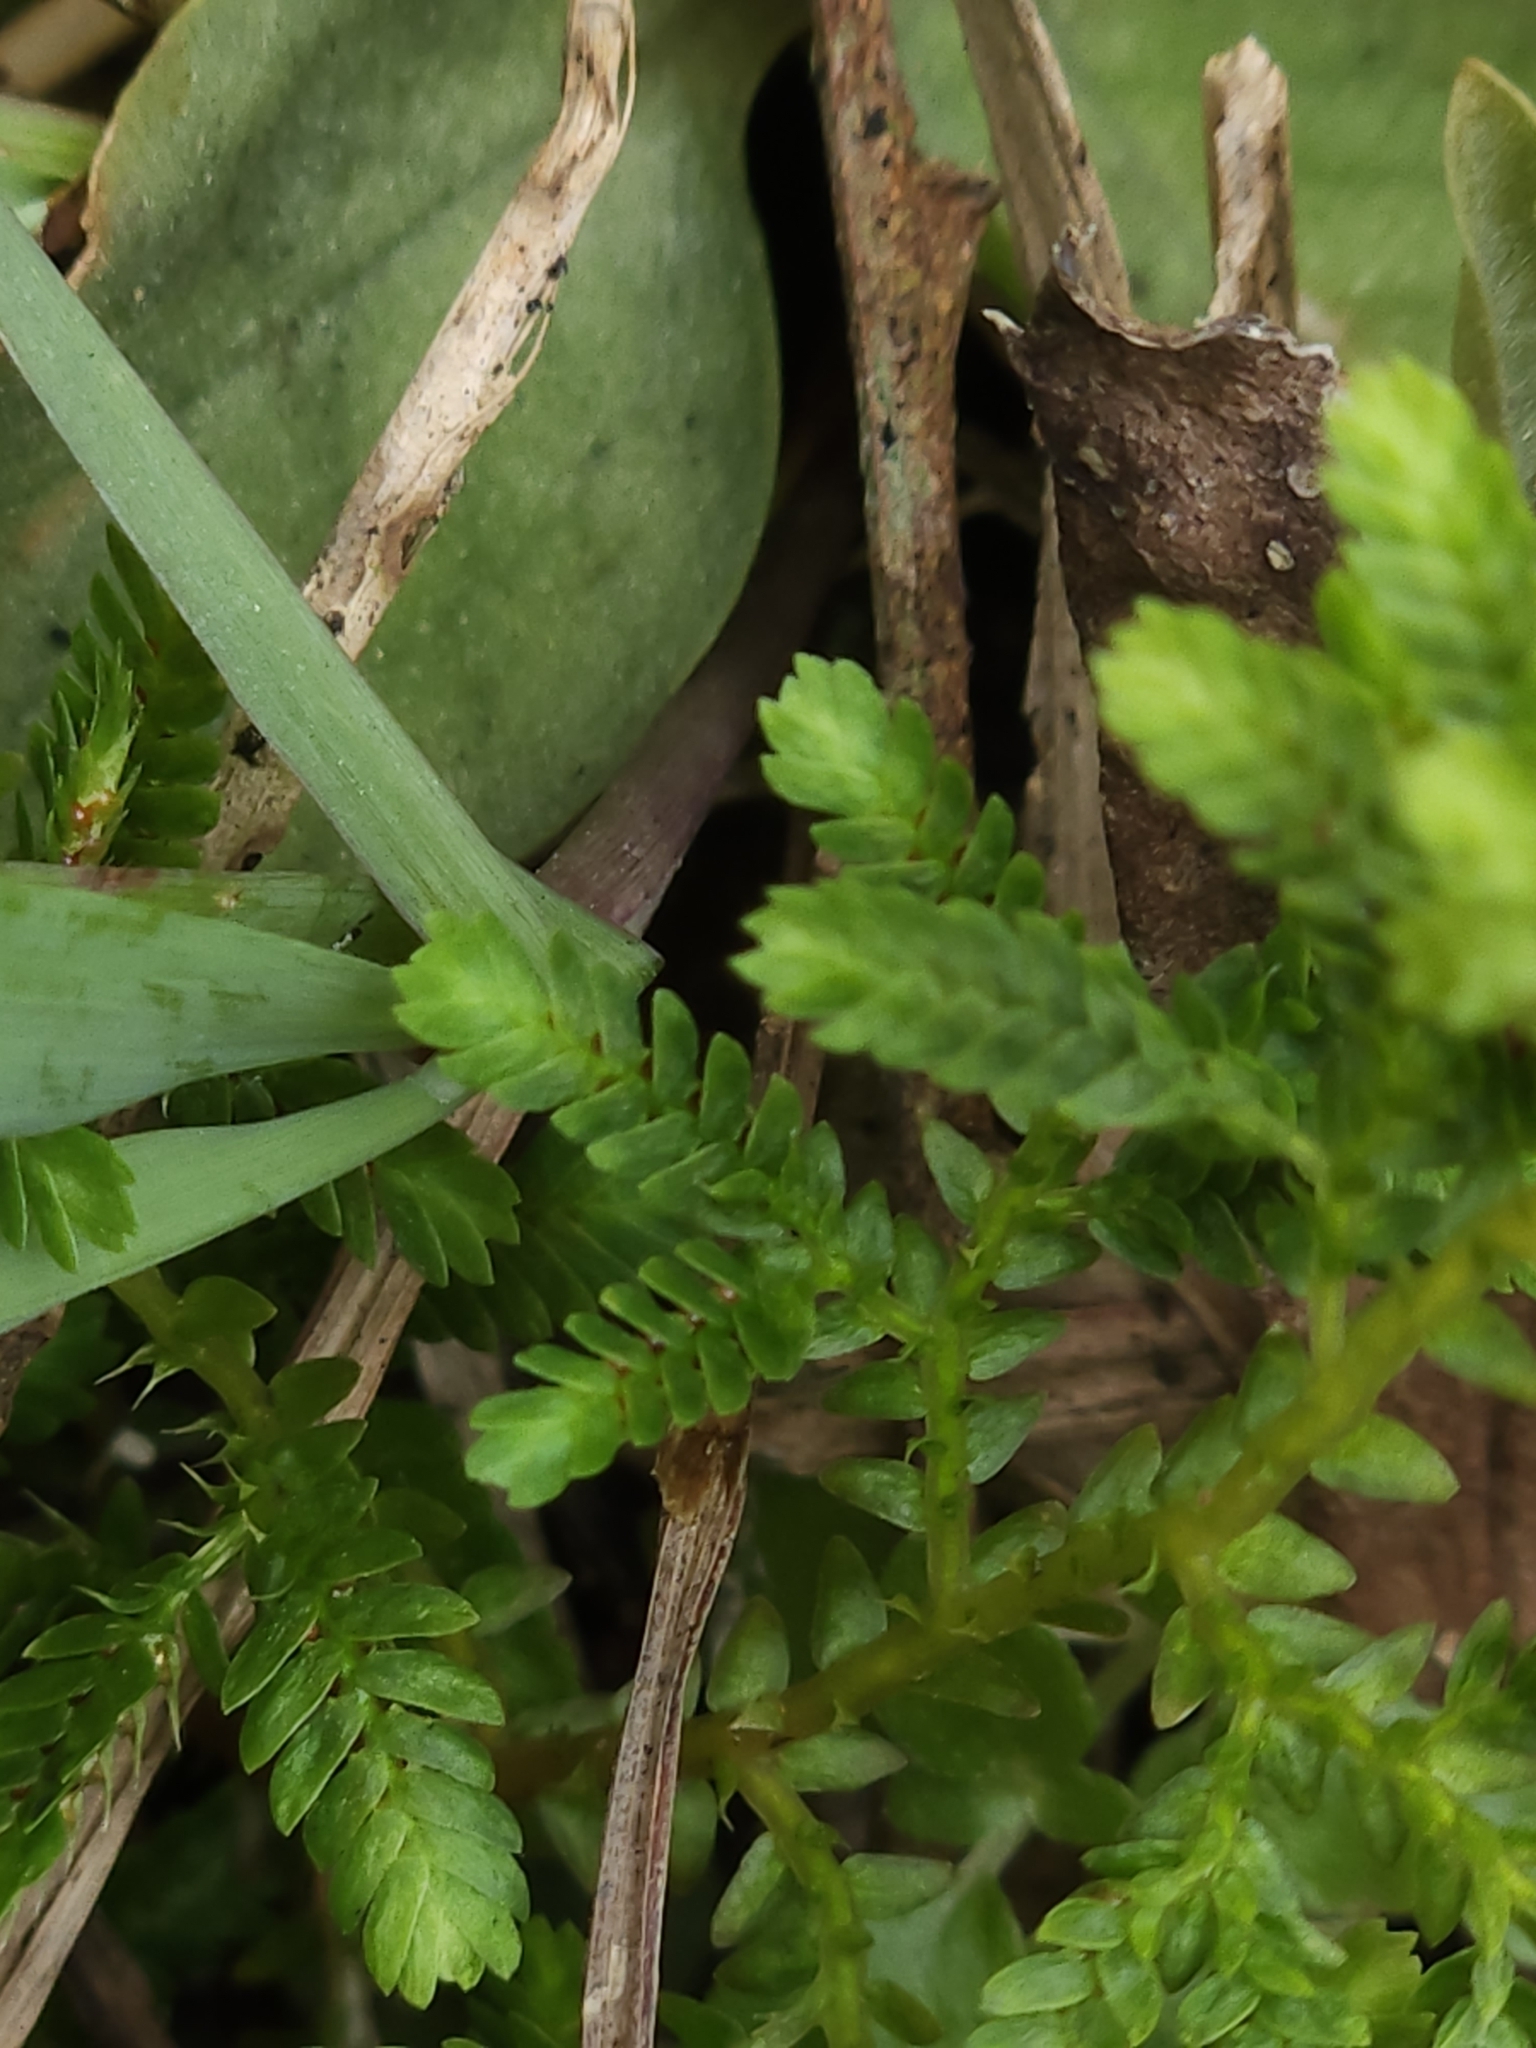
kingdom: Plantae
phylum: Tracheophyta
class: Lycopodiopsida
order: Selaginellales
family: Selaginellaceae
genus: Selaginella
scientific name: Selaginella aristata
